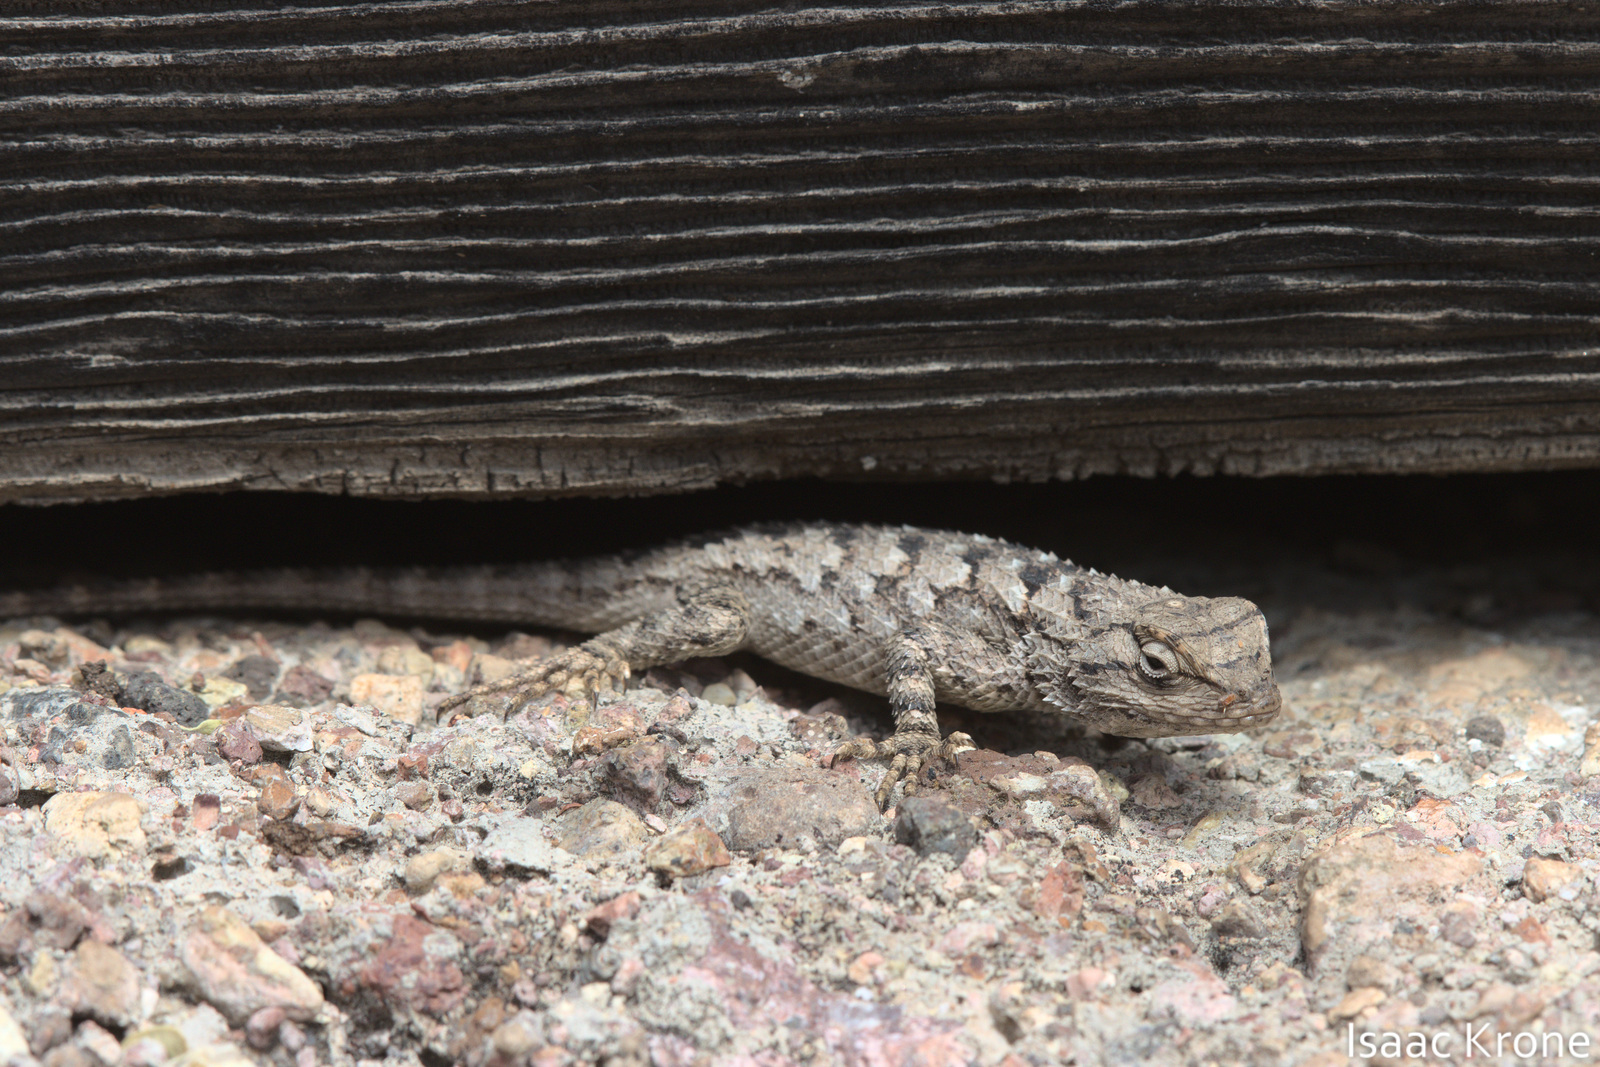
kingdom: Animalia
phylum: Chordata
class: Squamata
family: Phrynosomatidae
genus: Sceloporus
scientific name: Sceloporus clarkii
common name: Clark's spiny lizard
